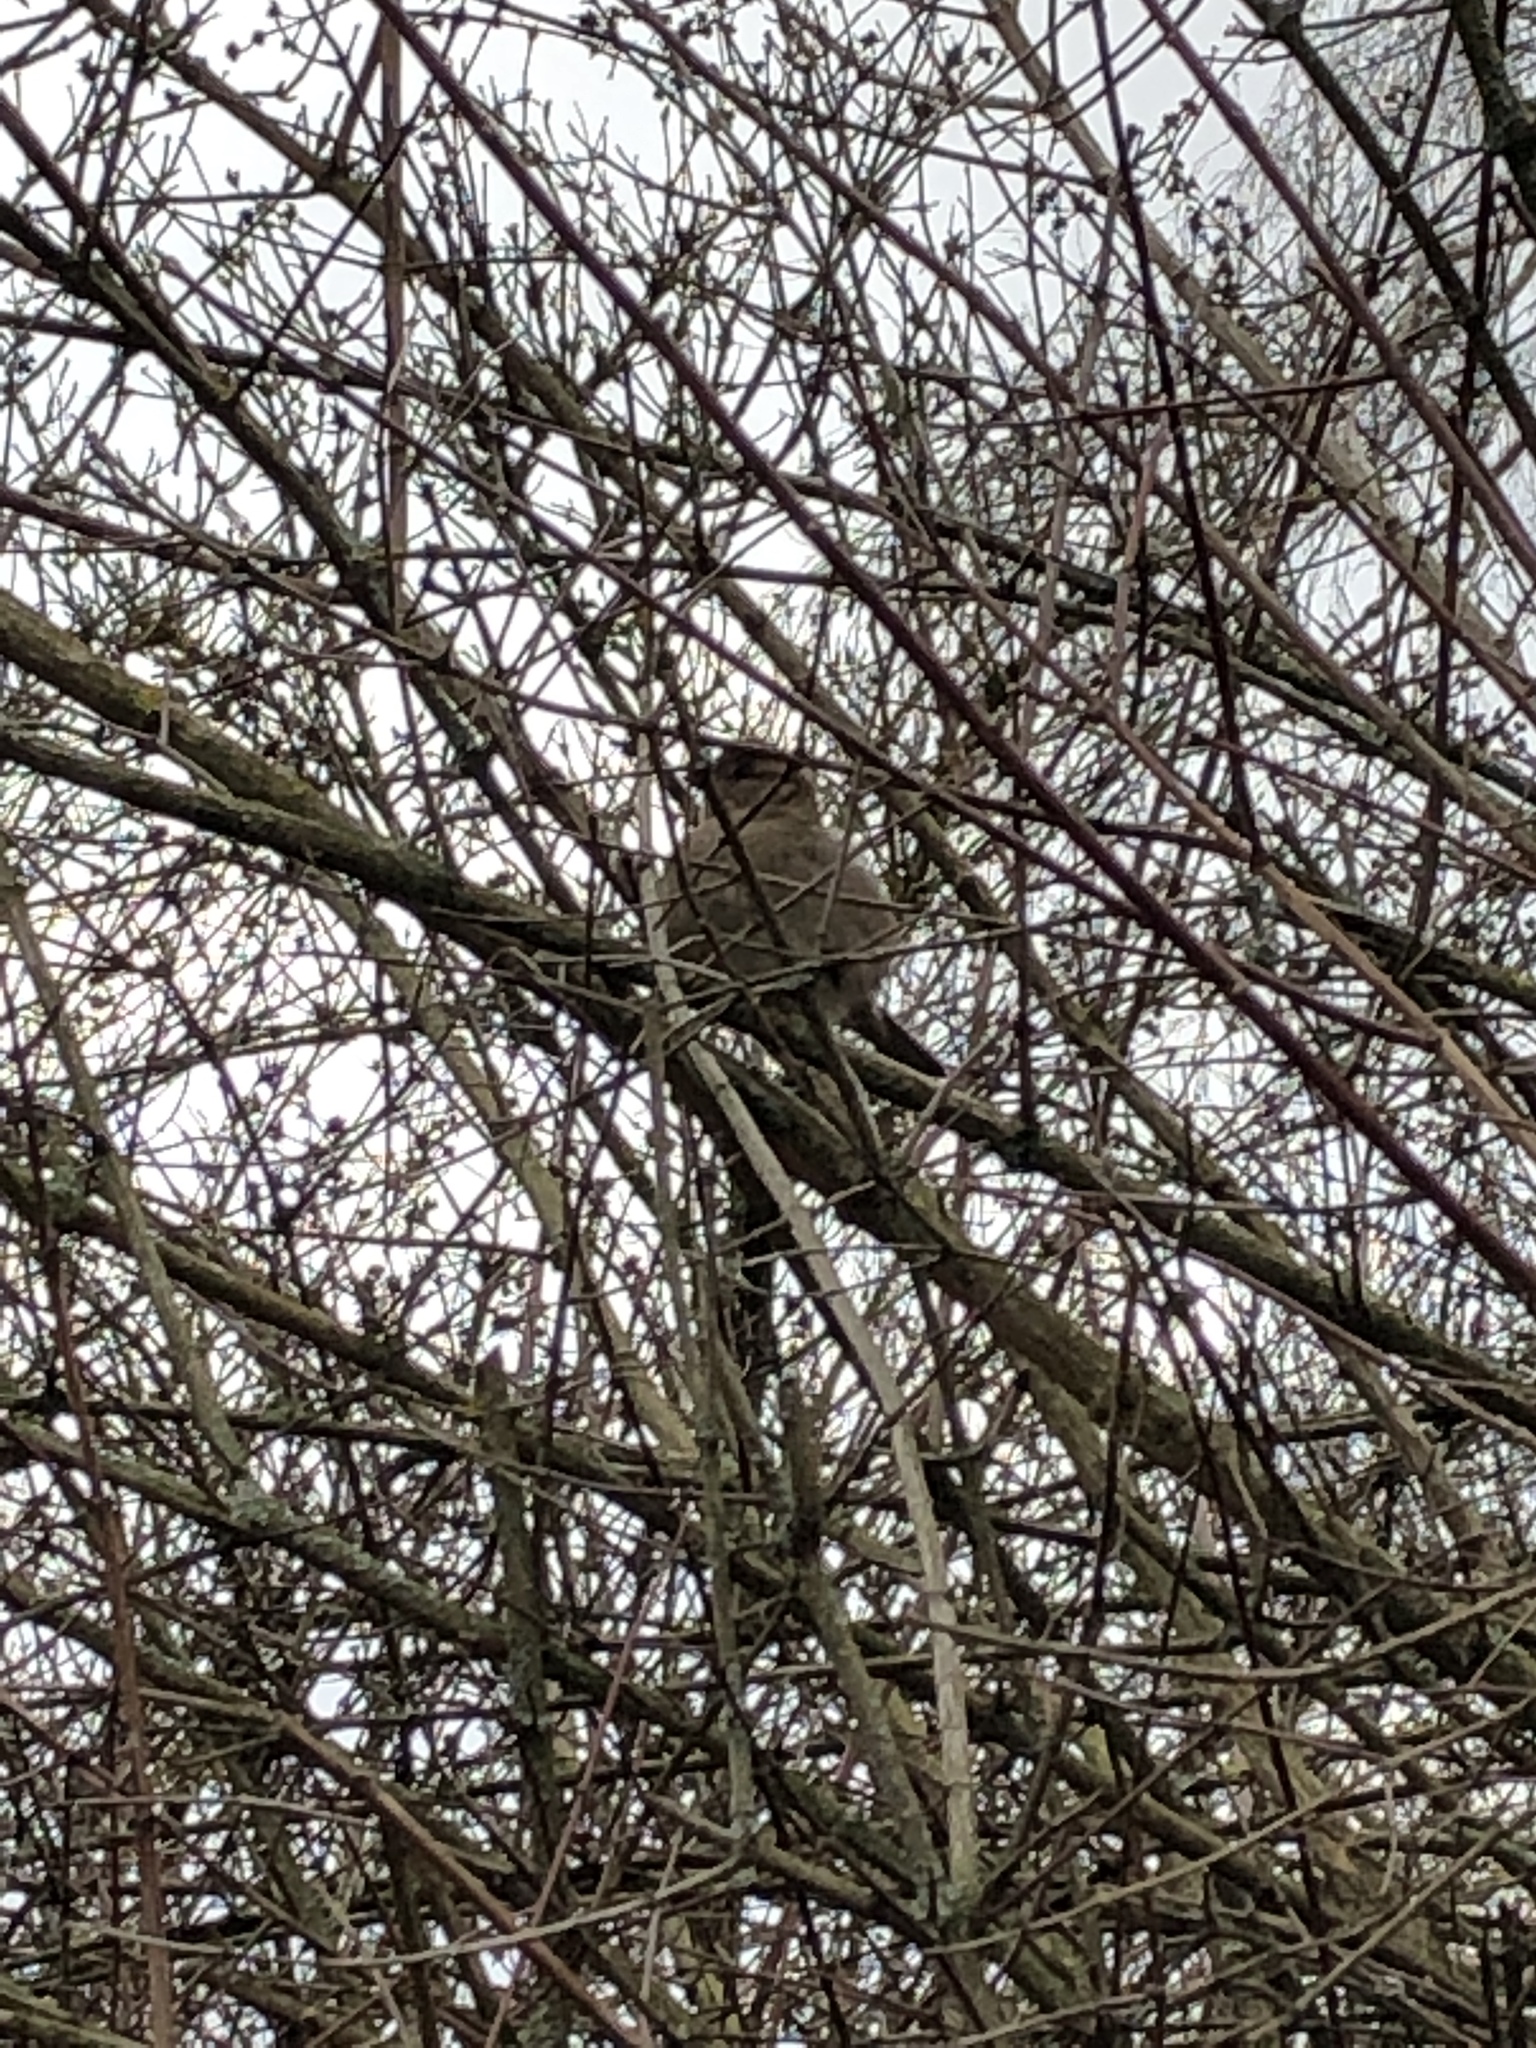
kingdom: Animalia
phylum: Chordata
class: Aves
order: Passeriformes
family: Passeridae
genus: Passer
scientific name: Passer domesticus
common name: House sparrow
